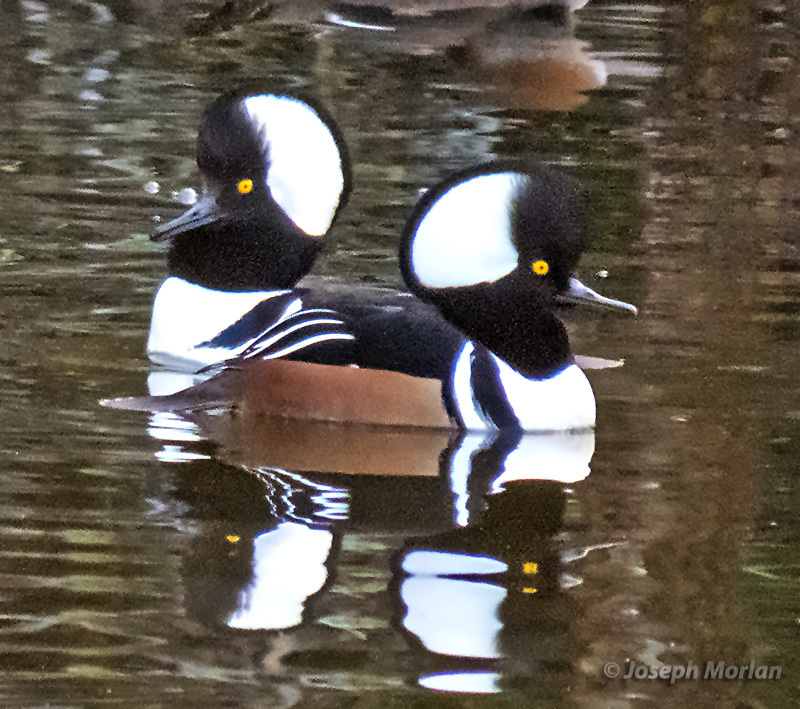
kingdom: Animalia
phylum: Chordata
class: Aves
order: Anseriformes
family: Anatidae
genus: Lophodytes
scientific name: Lophodytes cucullatus
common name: Hooded merganser
